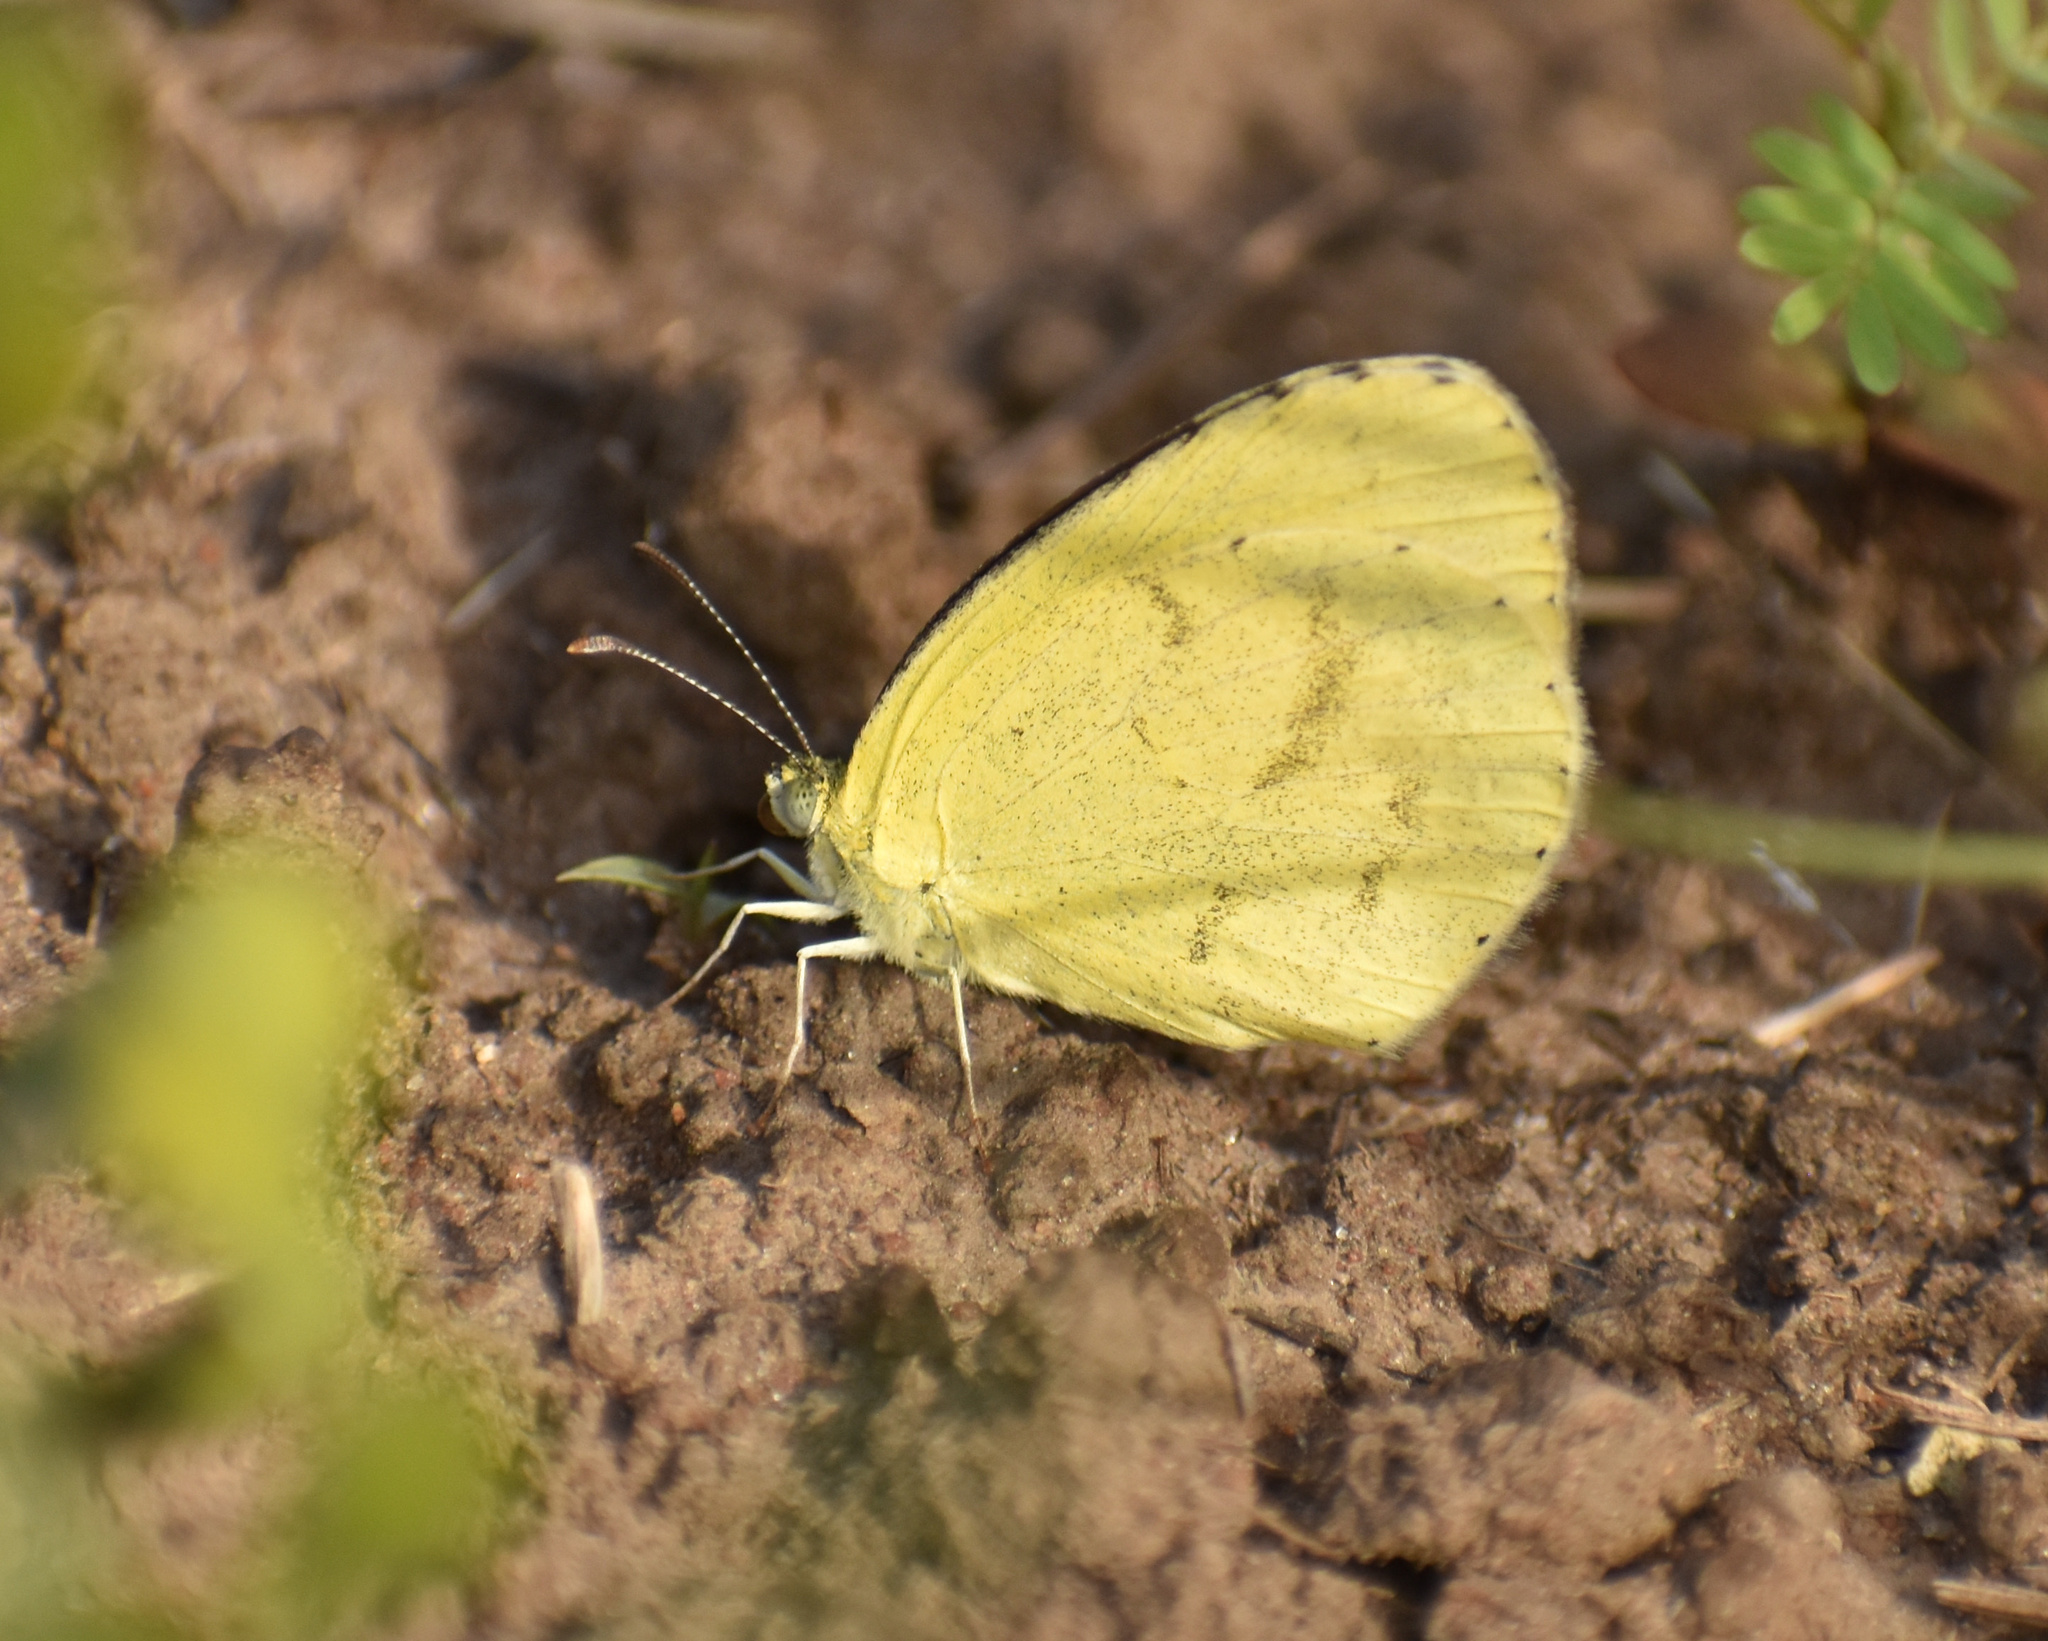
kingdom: Animalia
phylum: Arthropoda
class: Insecta
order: Lepidoptera
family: Pieridae
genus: Eurema
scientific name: Eurema brigitta
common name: Small grass yellow
